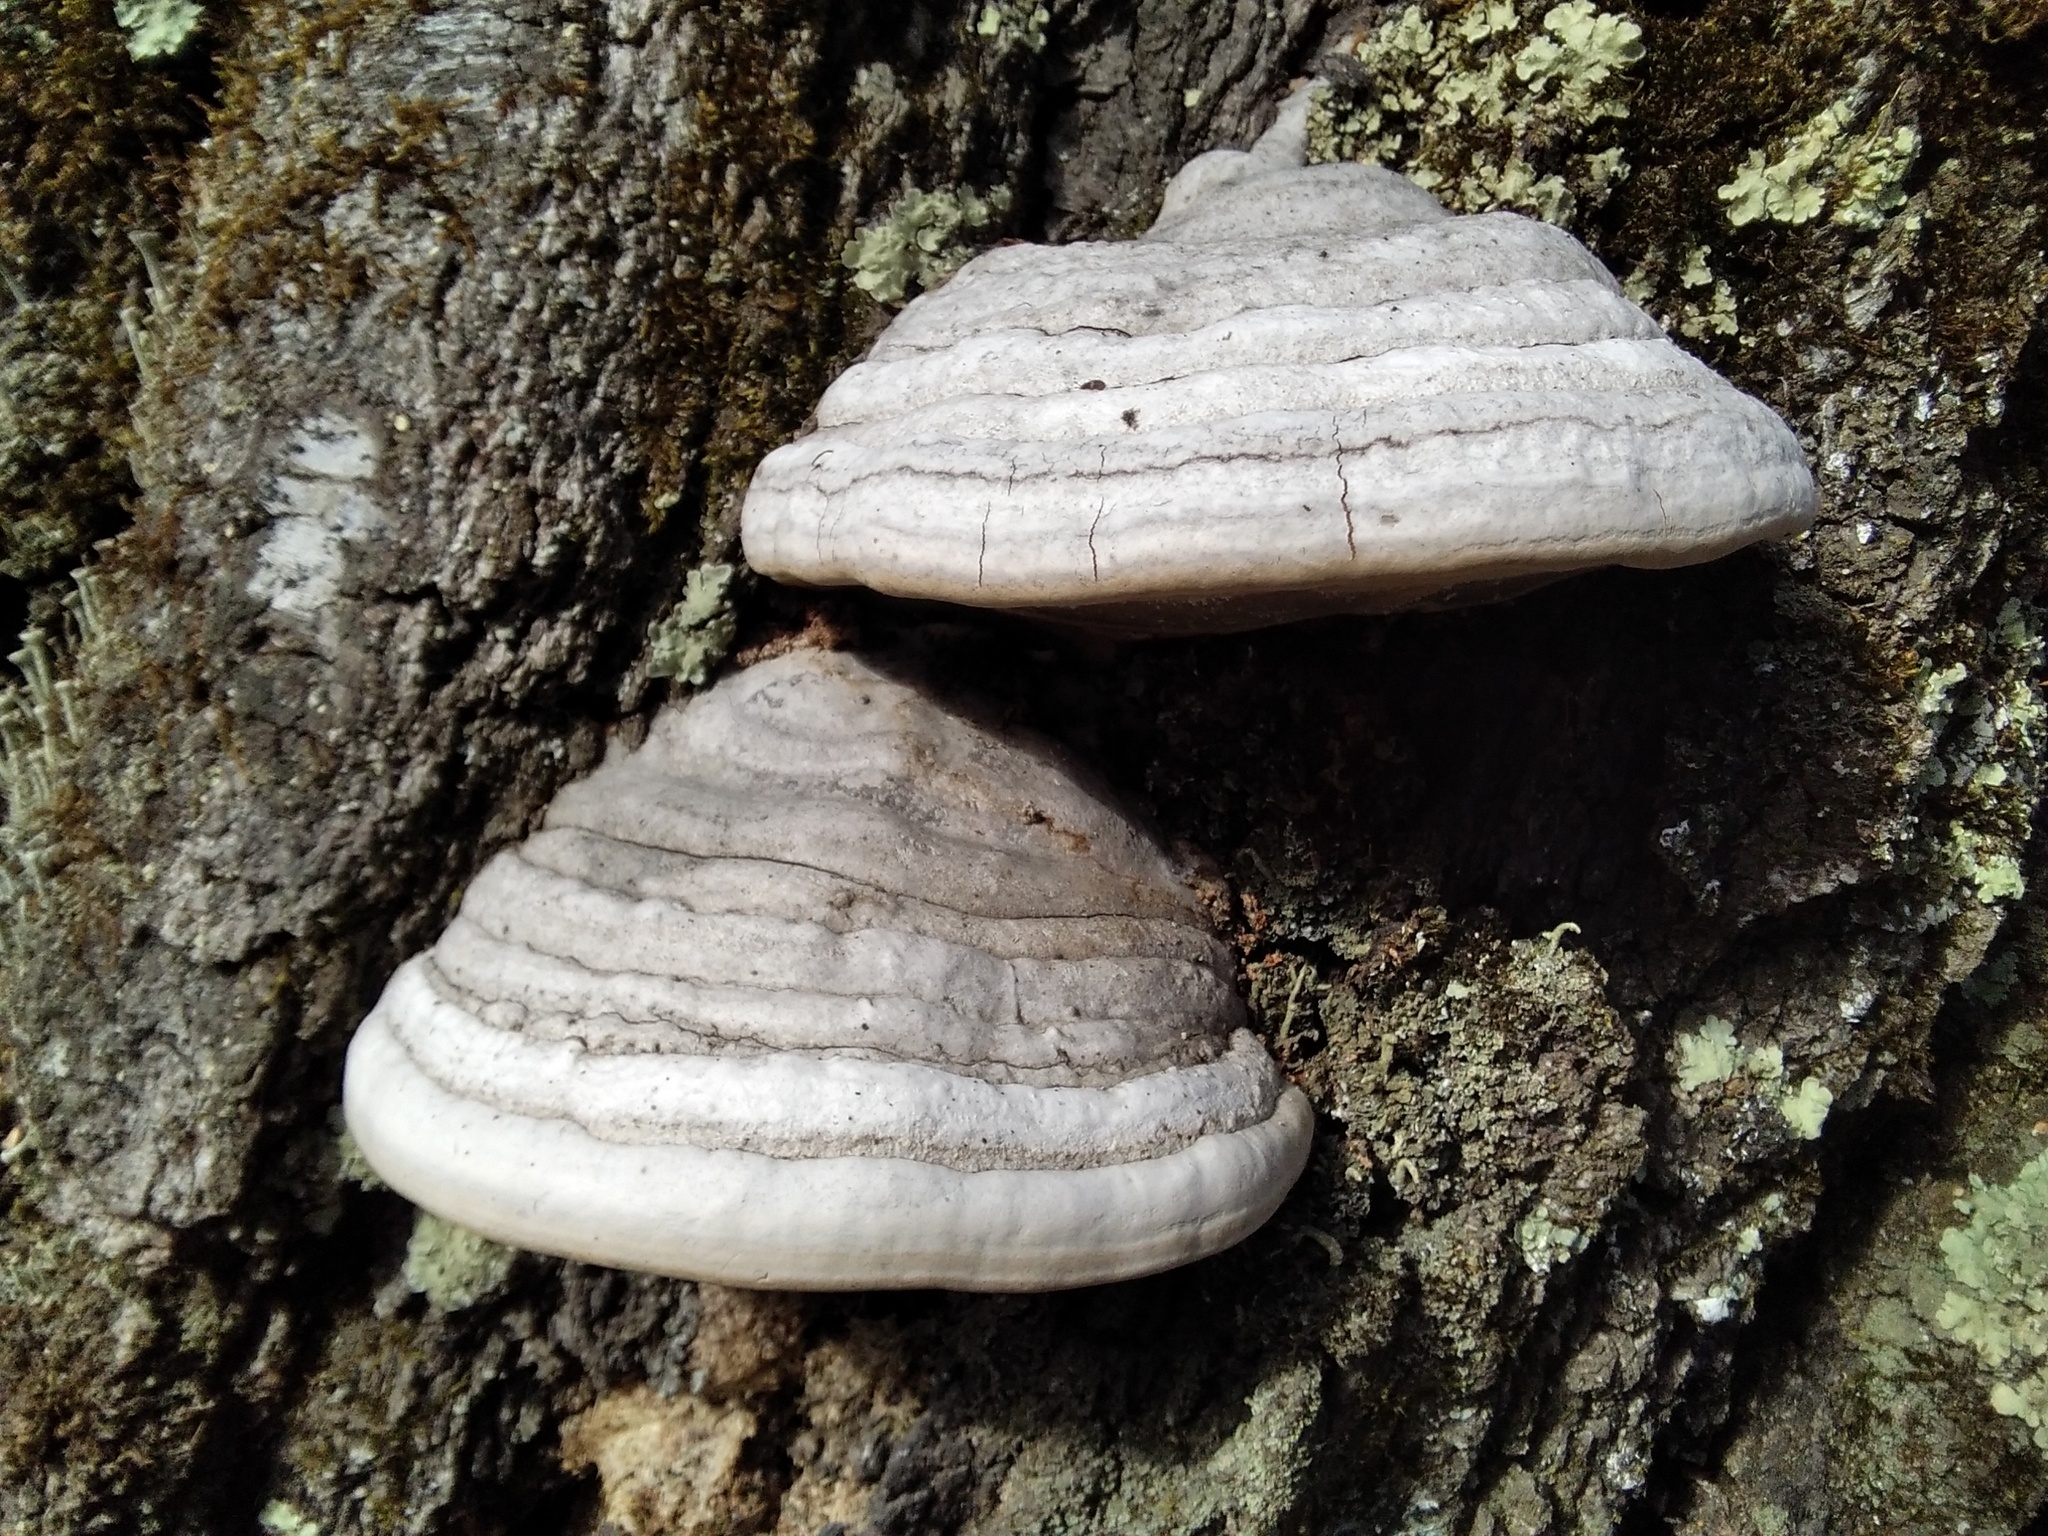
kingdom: Fungi
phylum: Basidiomycota
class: Agaricomycetes
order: Polyporales
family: Polyporaceae
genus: Fomes
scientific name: Fomes fomentarius
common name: Hoof fungus
